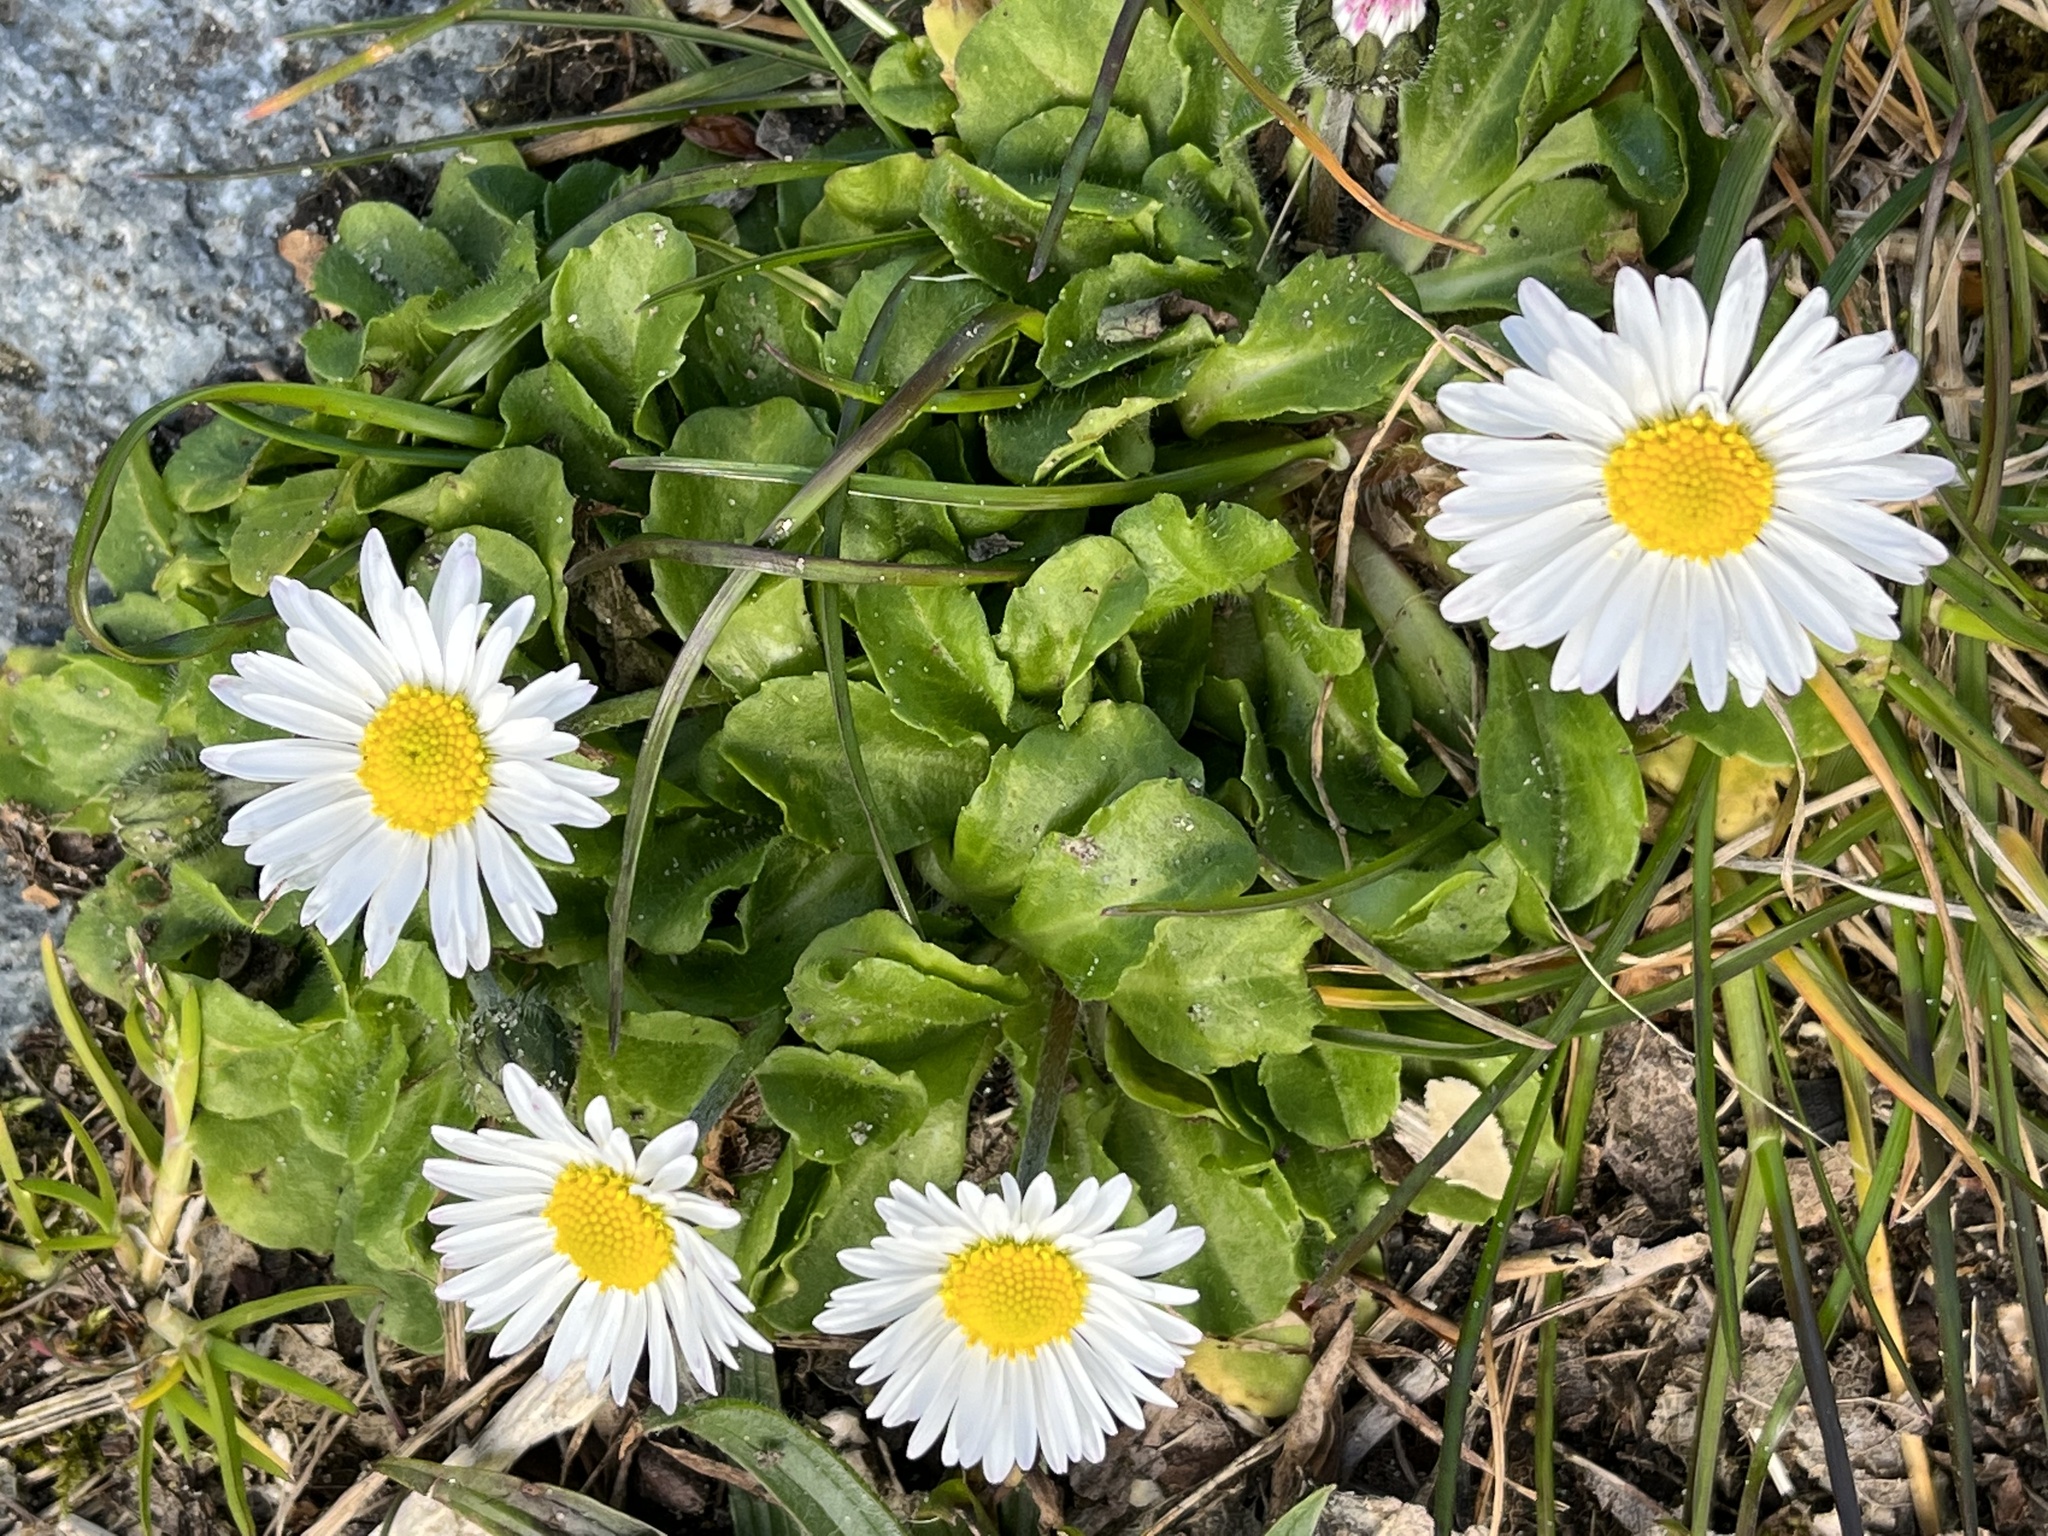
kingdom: Plantae
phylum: Tracheophyta
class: Magnoliopsida
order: Asterales
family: Asteraceae
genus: Bellis
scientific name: Bellis perennis
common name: Lawndaisy
